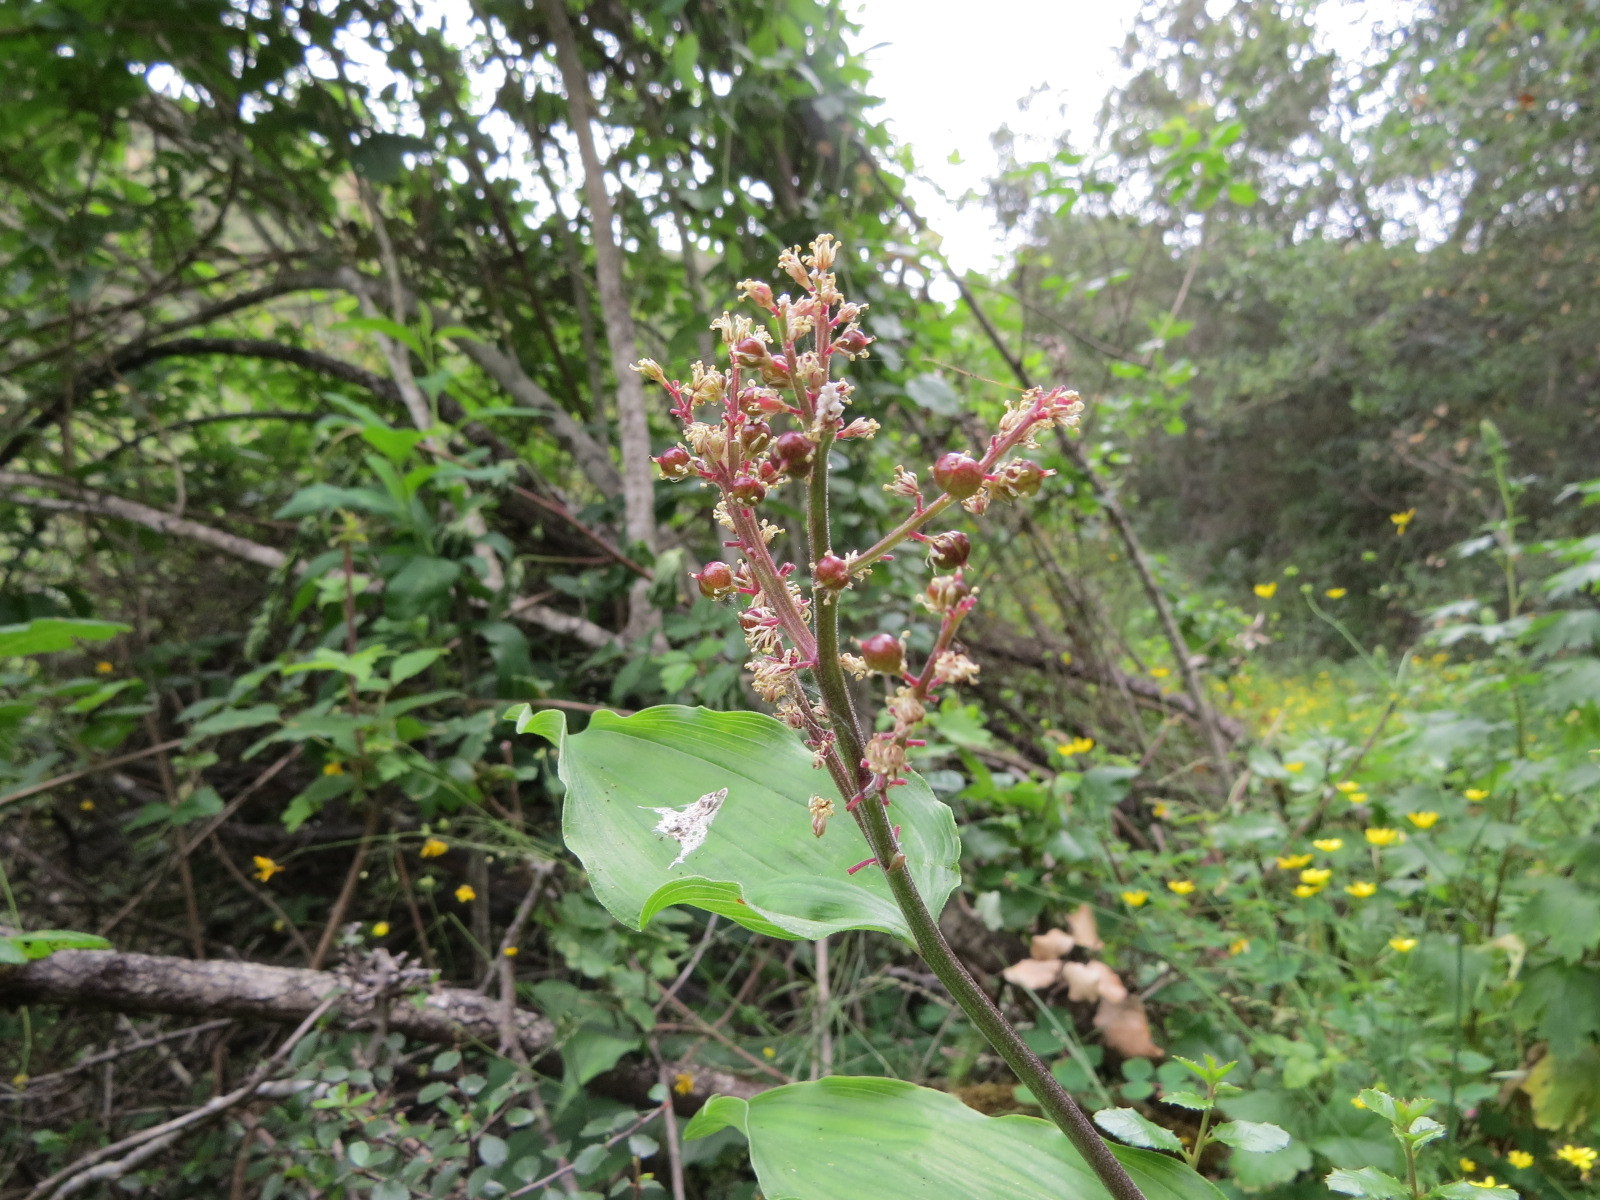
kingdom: Plantae
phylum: Tracheophyta
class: Liliopsida
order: Asparagales
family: Asparagaceae
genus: Maianthemum
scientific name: Maianthemum racemosum
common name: False spikenard
